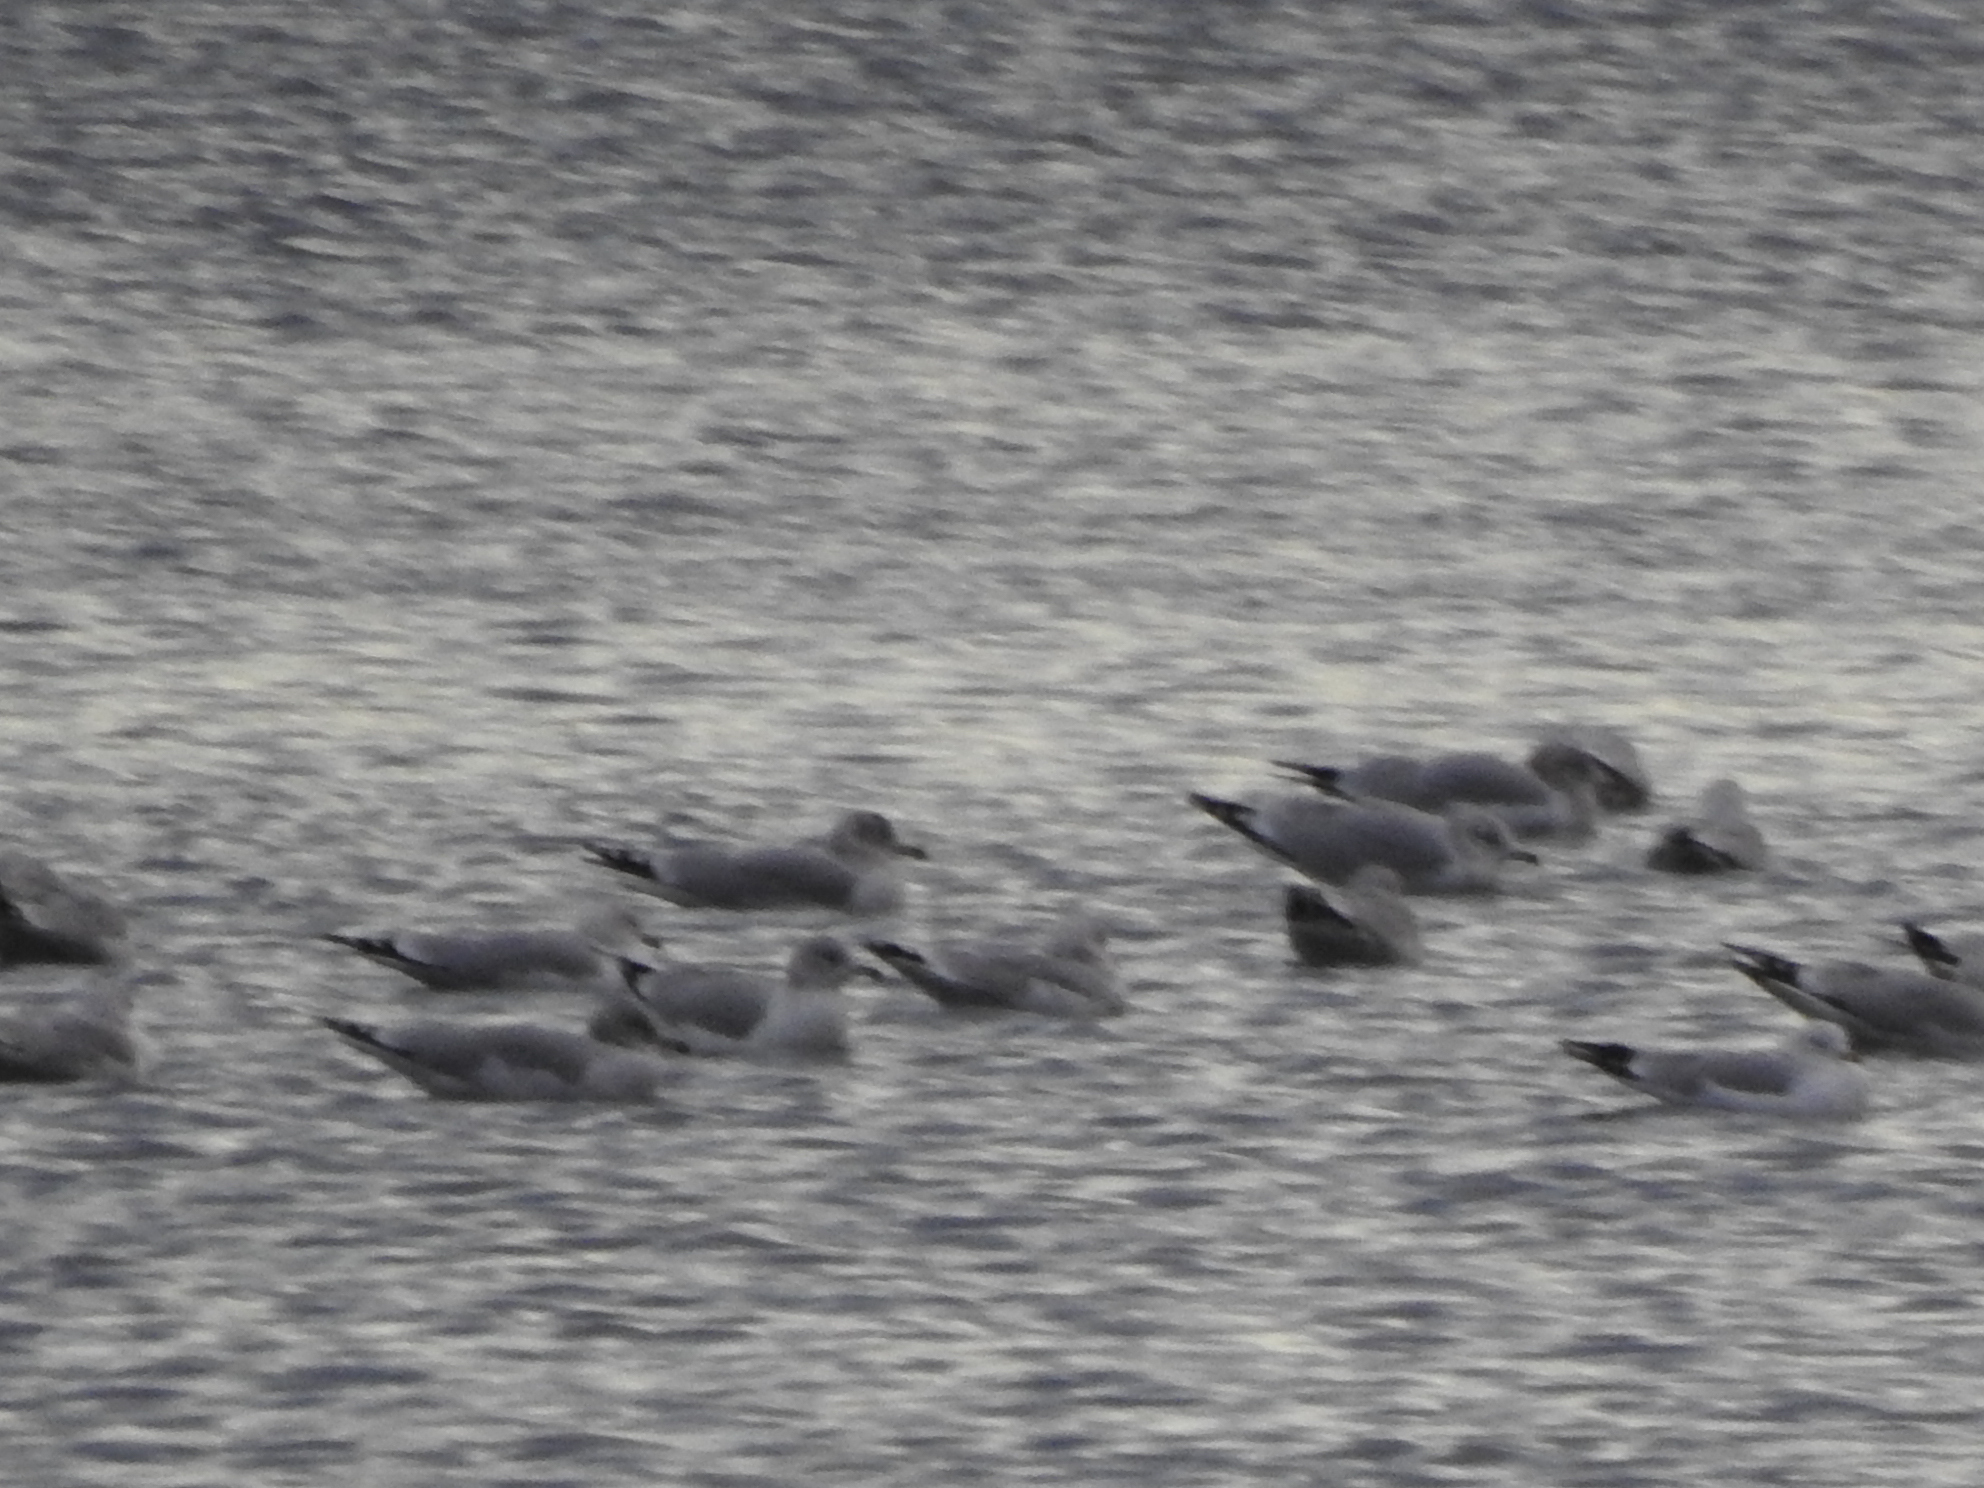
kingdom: Animalia
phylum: Chordata
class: Aves
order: Charadriiformes
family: Laridae
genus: Larus
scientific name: Larus delawarensis
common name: Ring-billed gull
